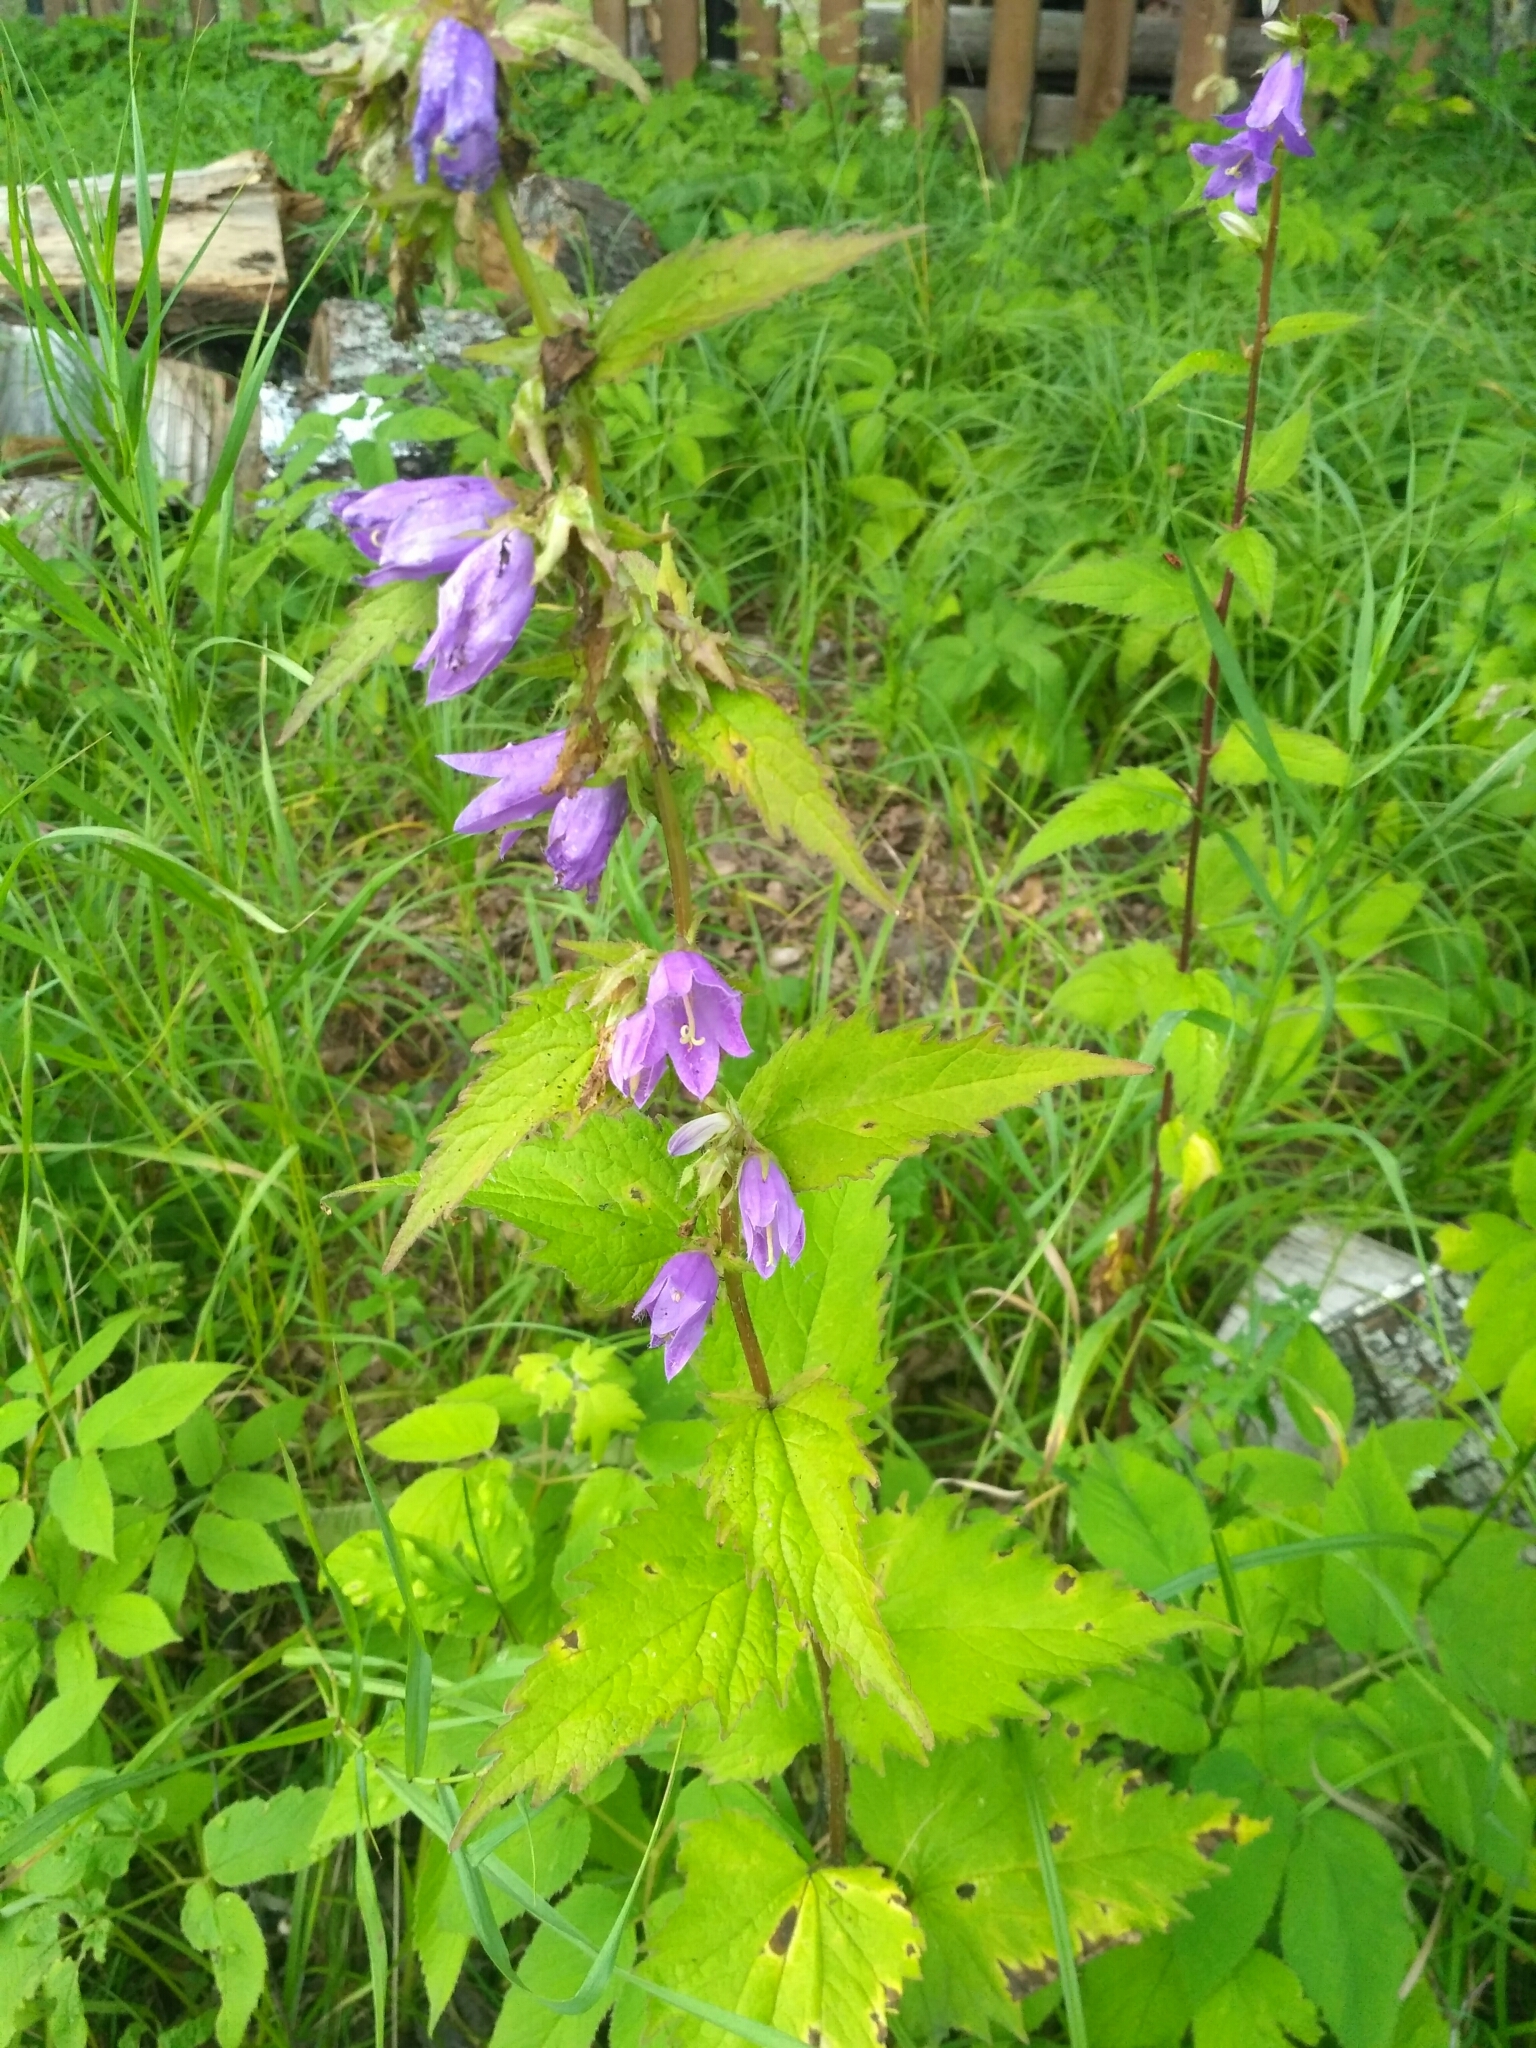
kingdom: Plantae
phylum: Tracheophyta
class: Magnoliopsida
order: Asterales
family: Campanulaceae
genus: Campanula
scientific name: Campanula trachelium
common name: Nettle-leaved bellflower
